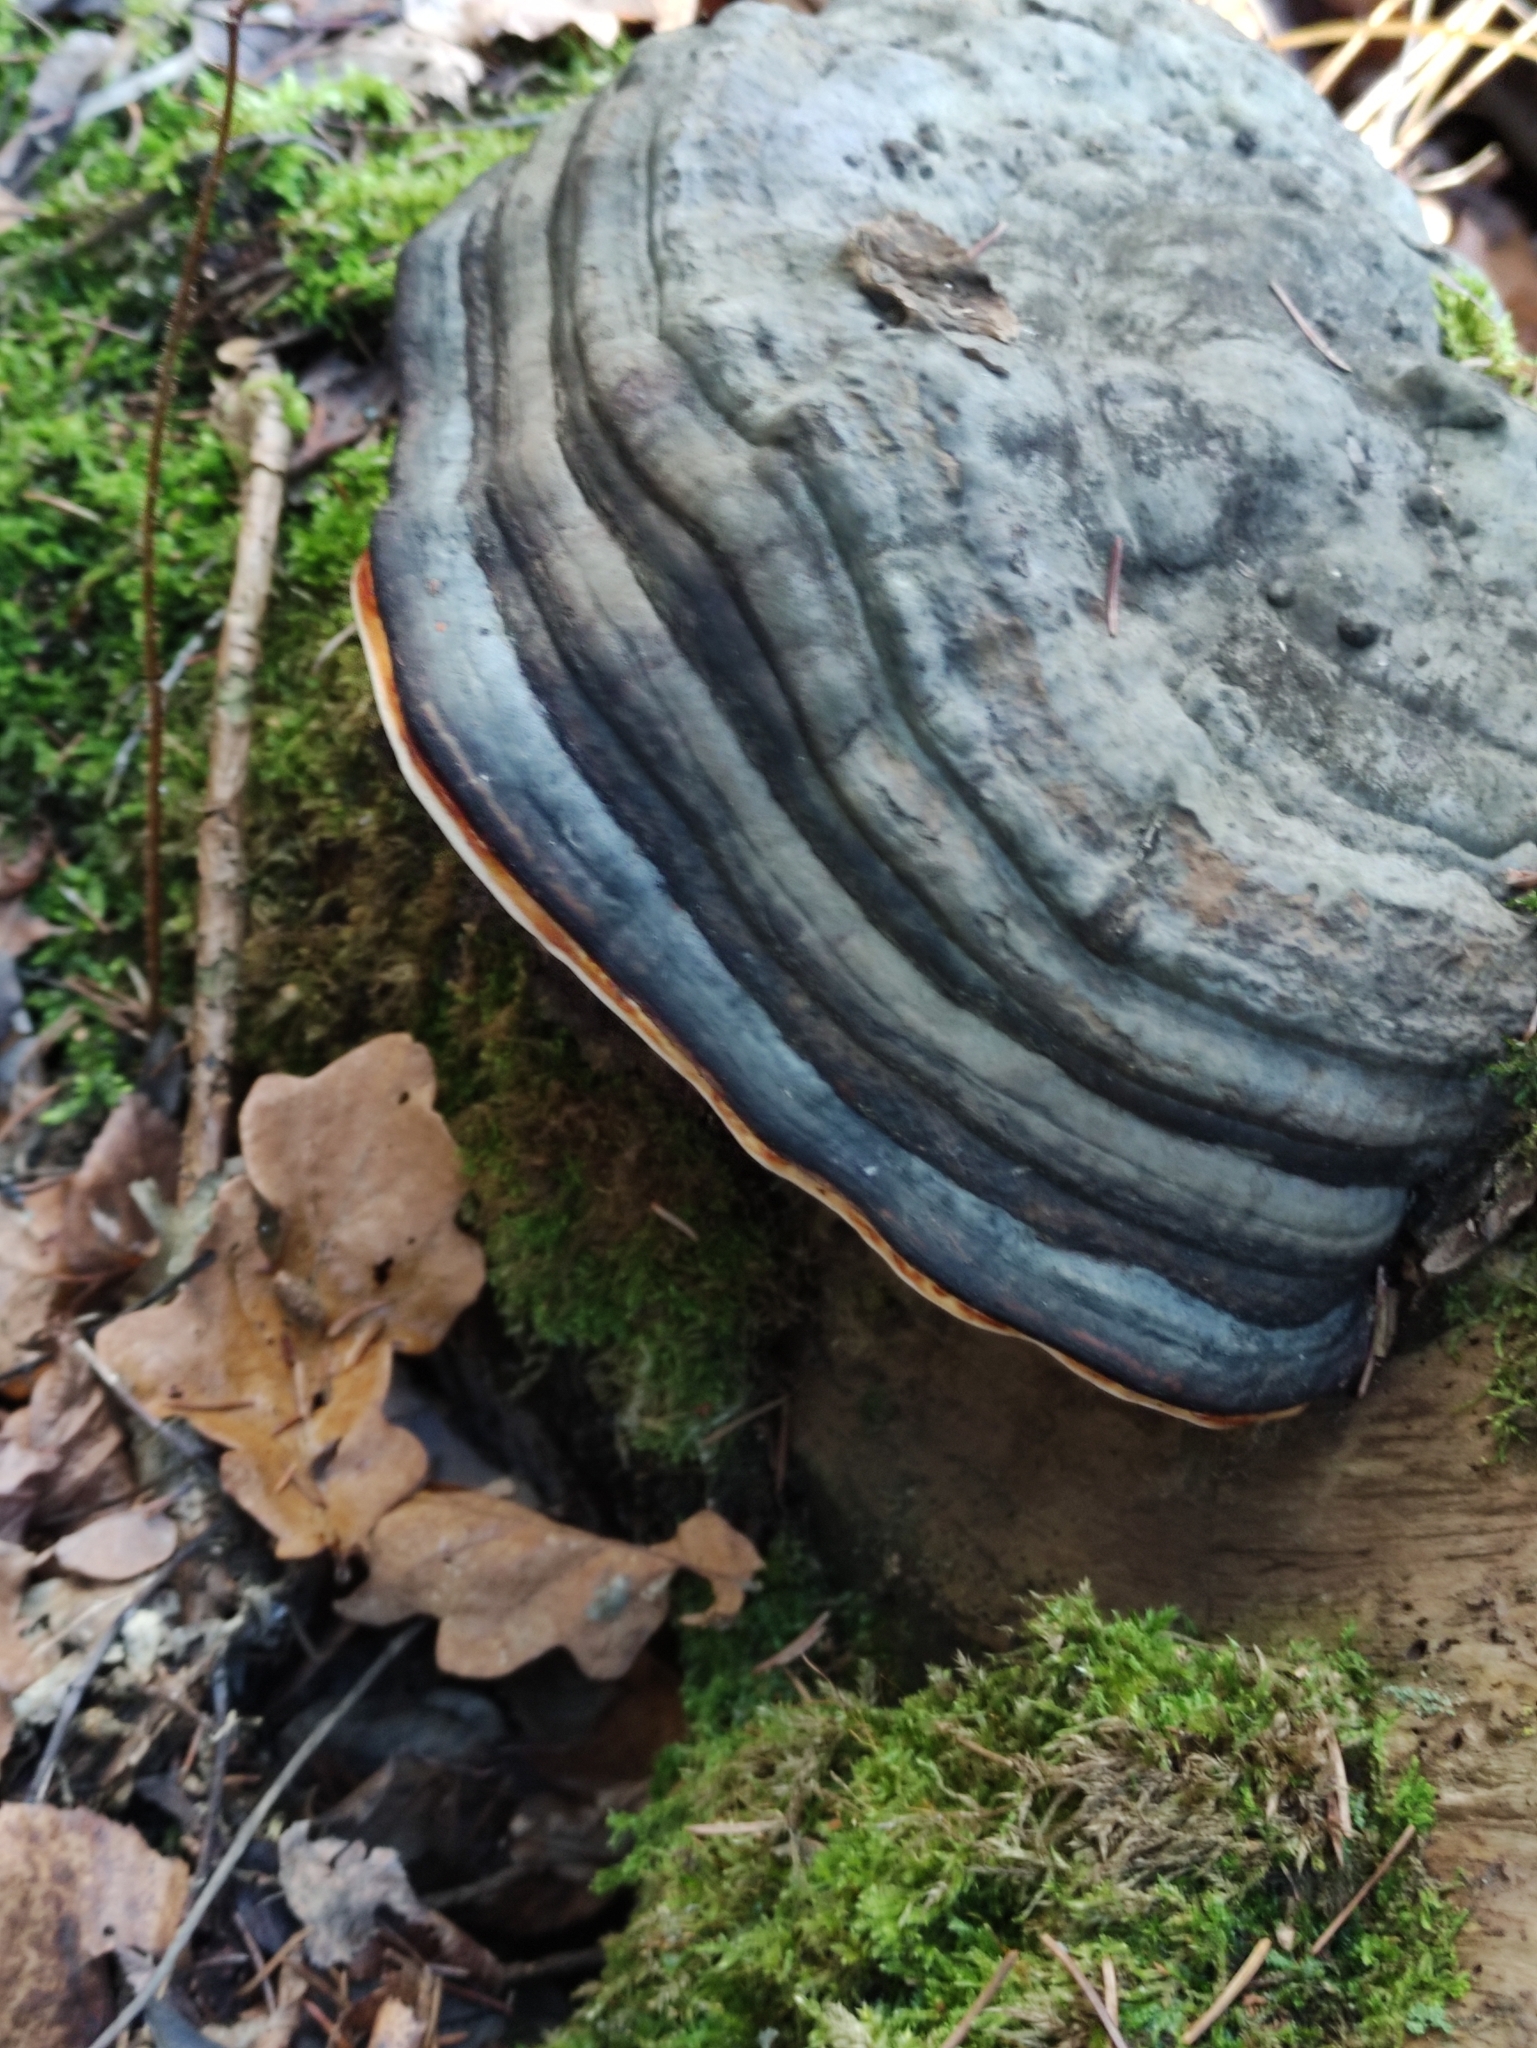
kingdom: Fungi
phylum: Basidiomycota
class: Agaricomycetes
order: Polyporales
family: Polyporaceae
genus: Fomes
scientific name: Fomes fomentarius
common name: Hoof fungus
